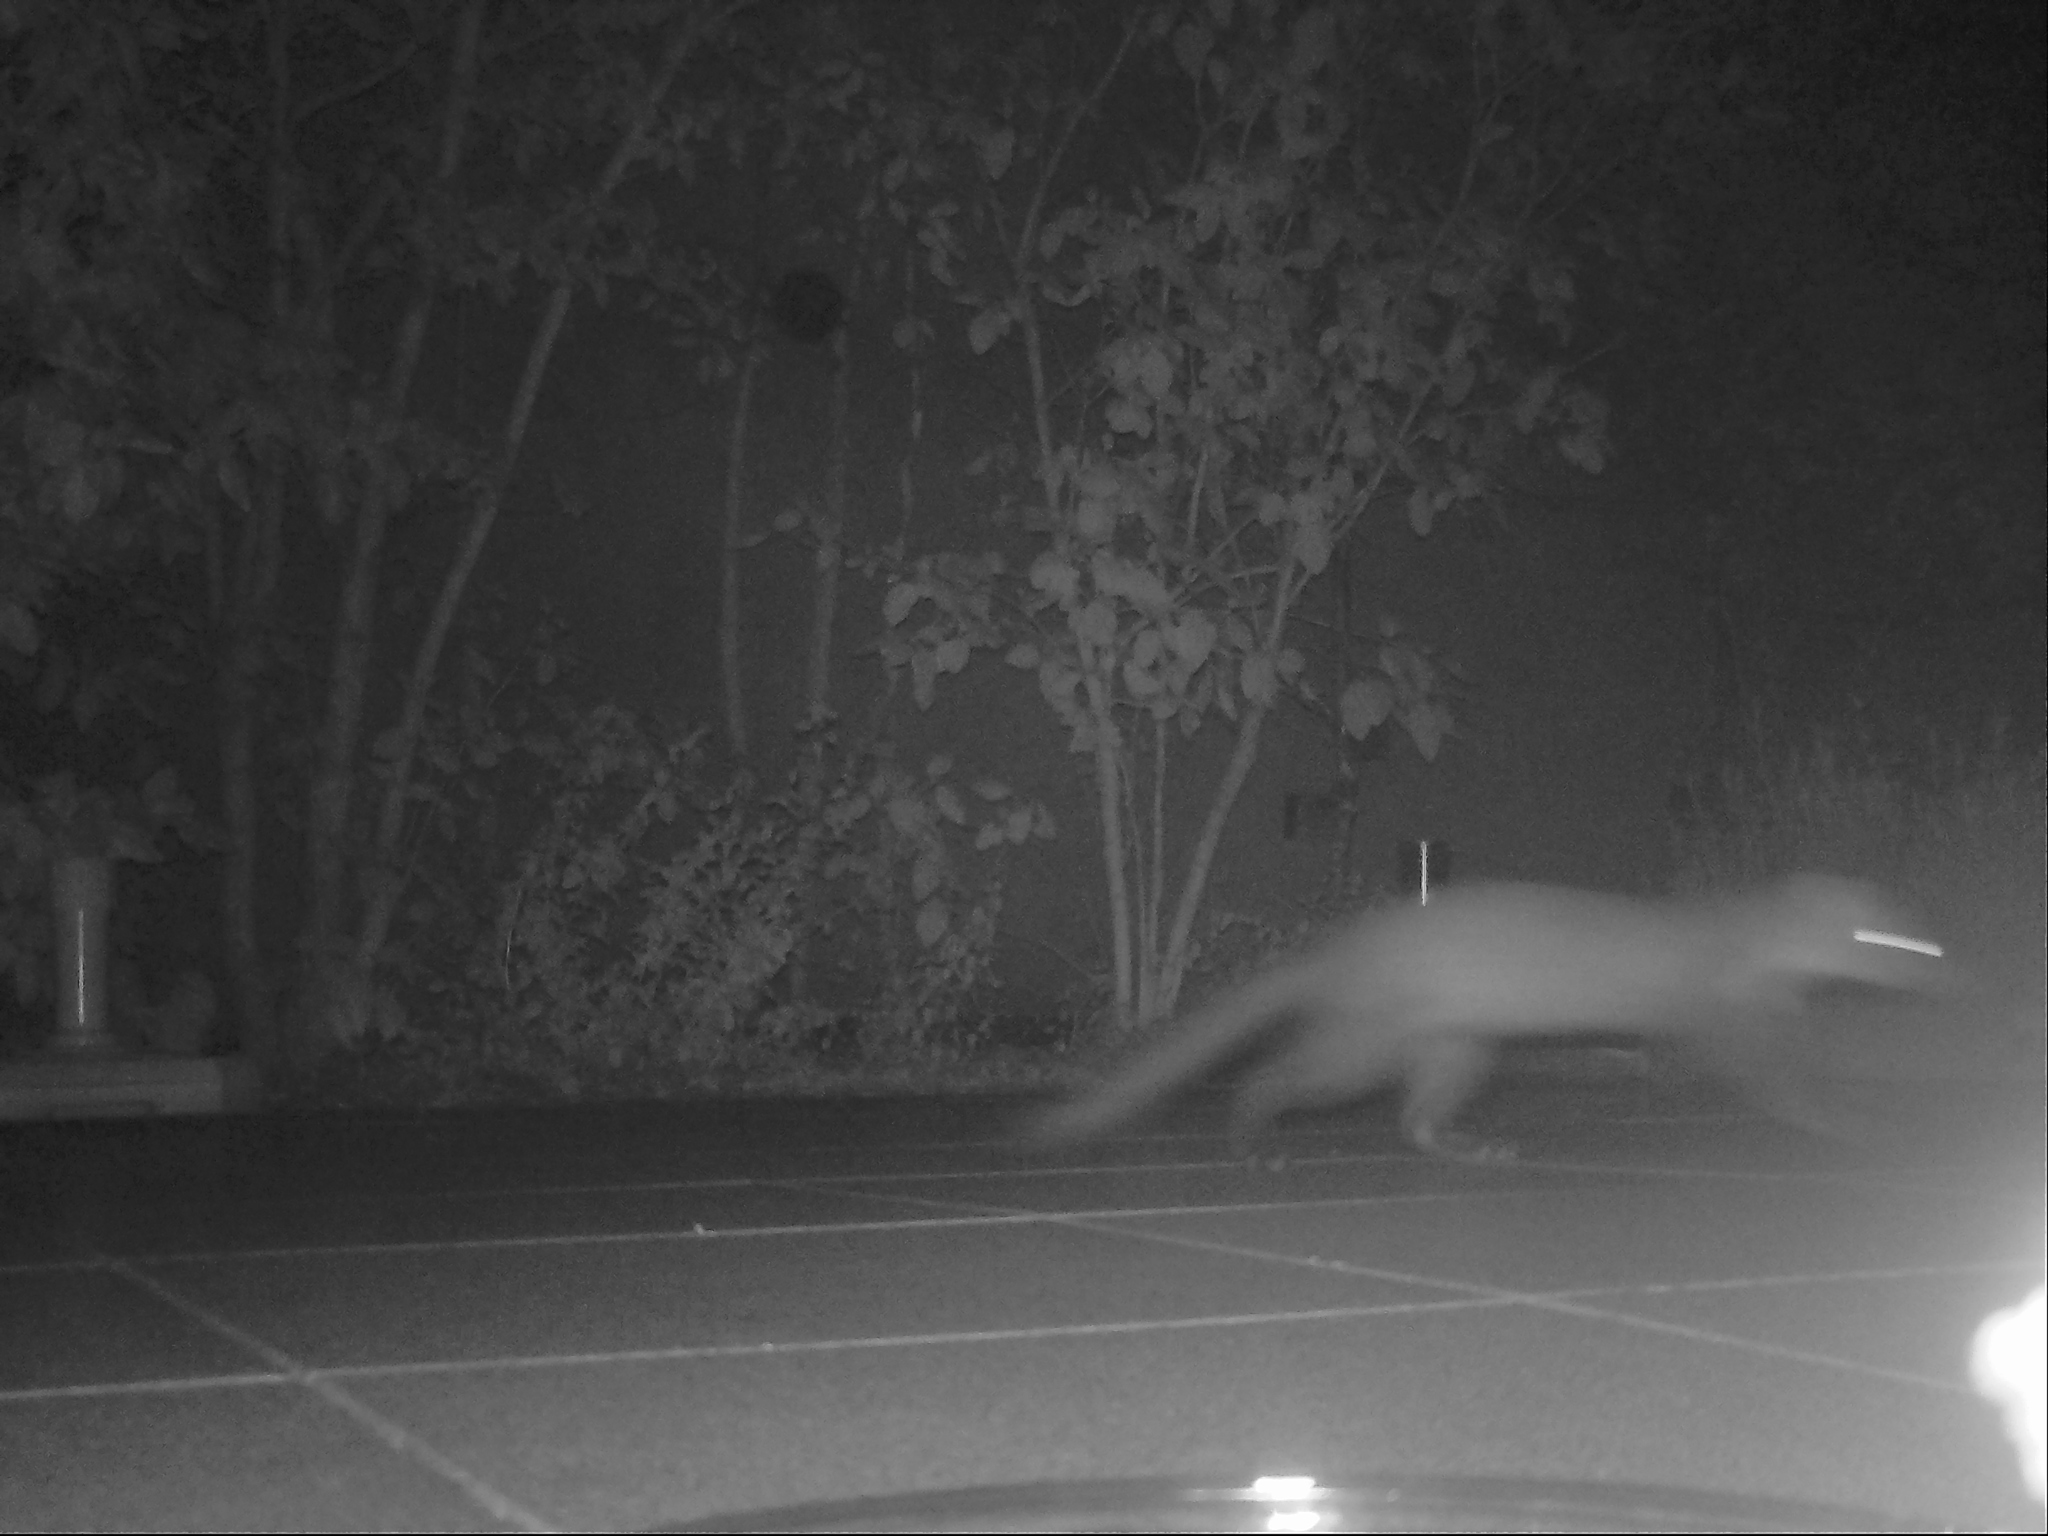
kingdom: Animalia
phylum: Chordata
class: Mammalia
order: Carnivora
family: Mustelidae
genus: Martes
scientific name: Martes foina
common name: Beech marten
